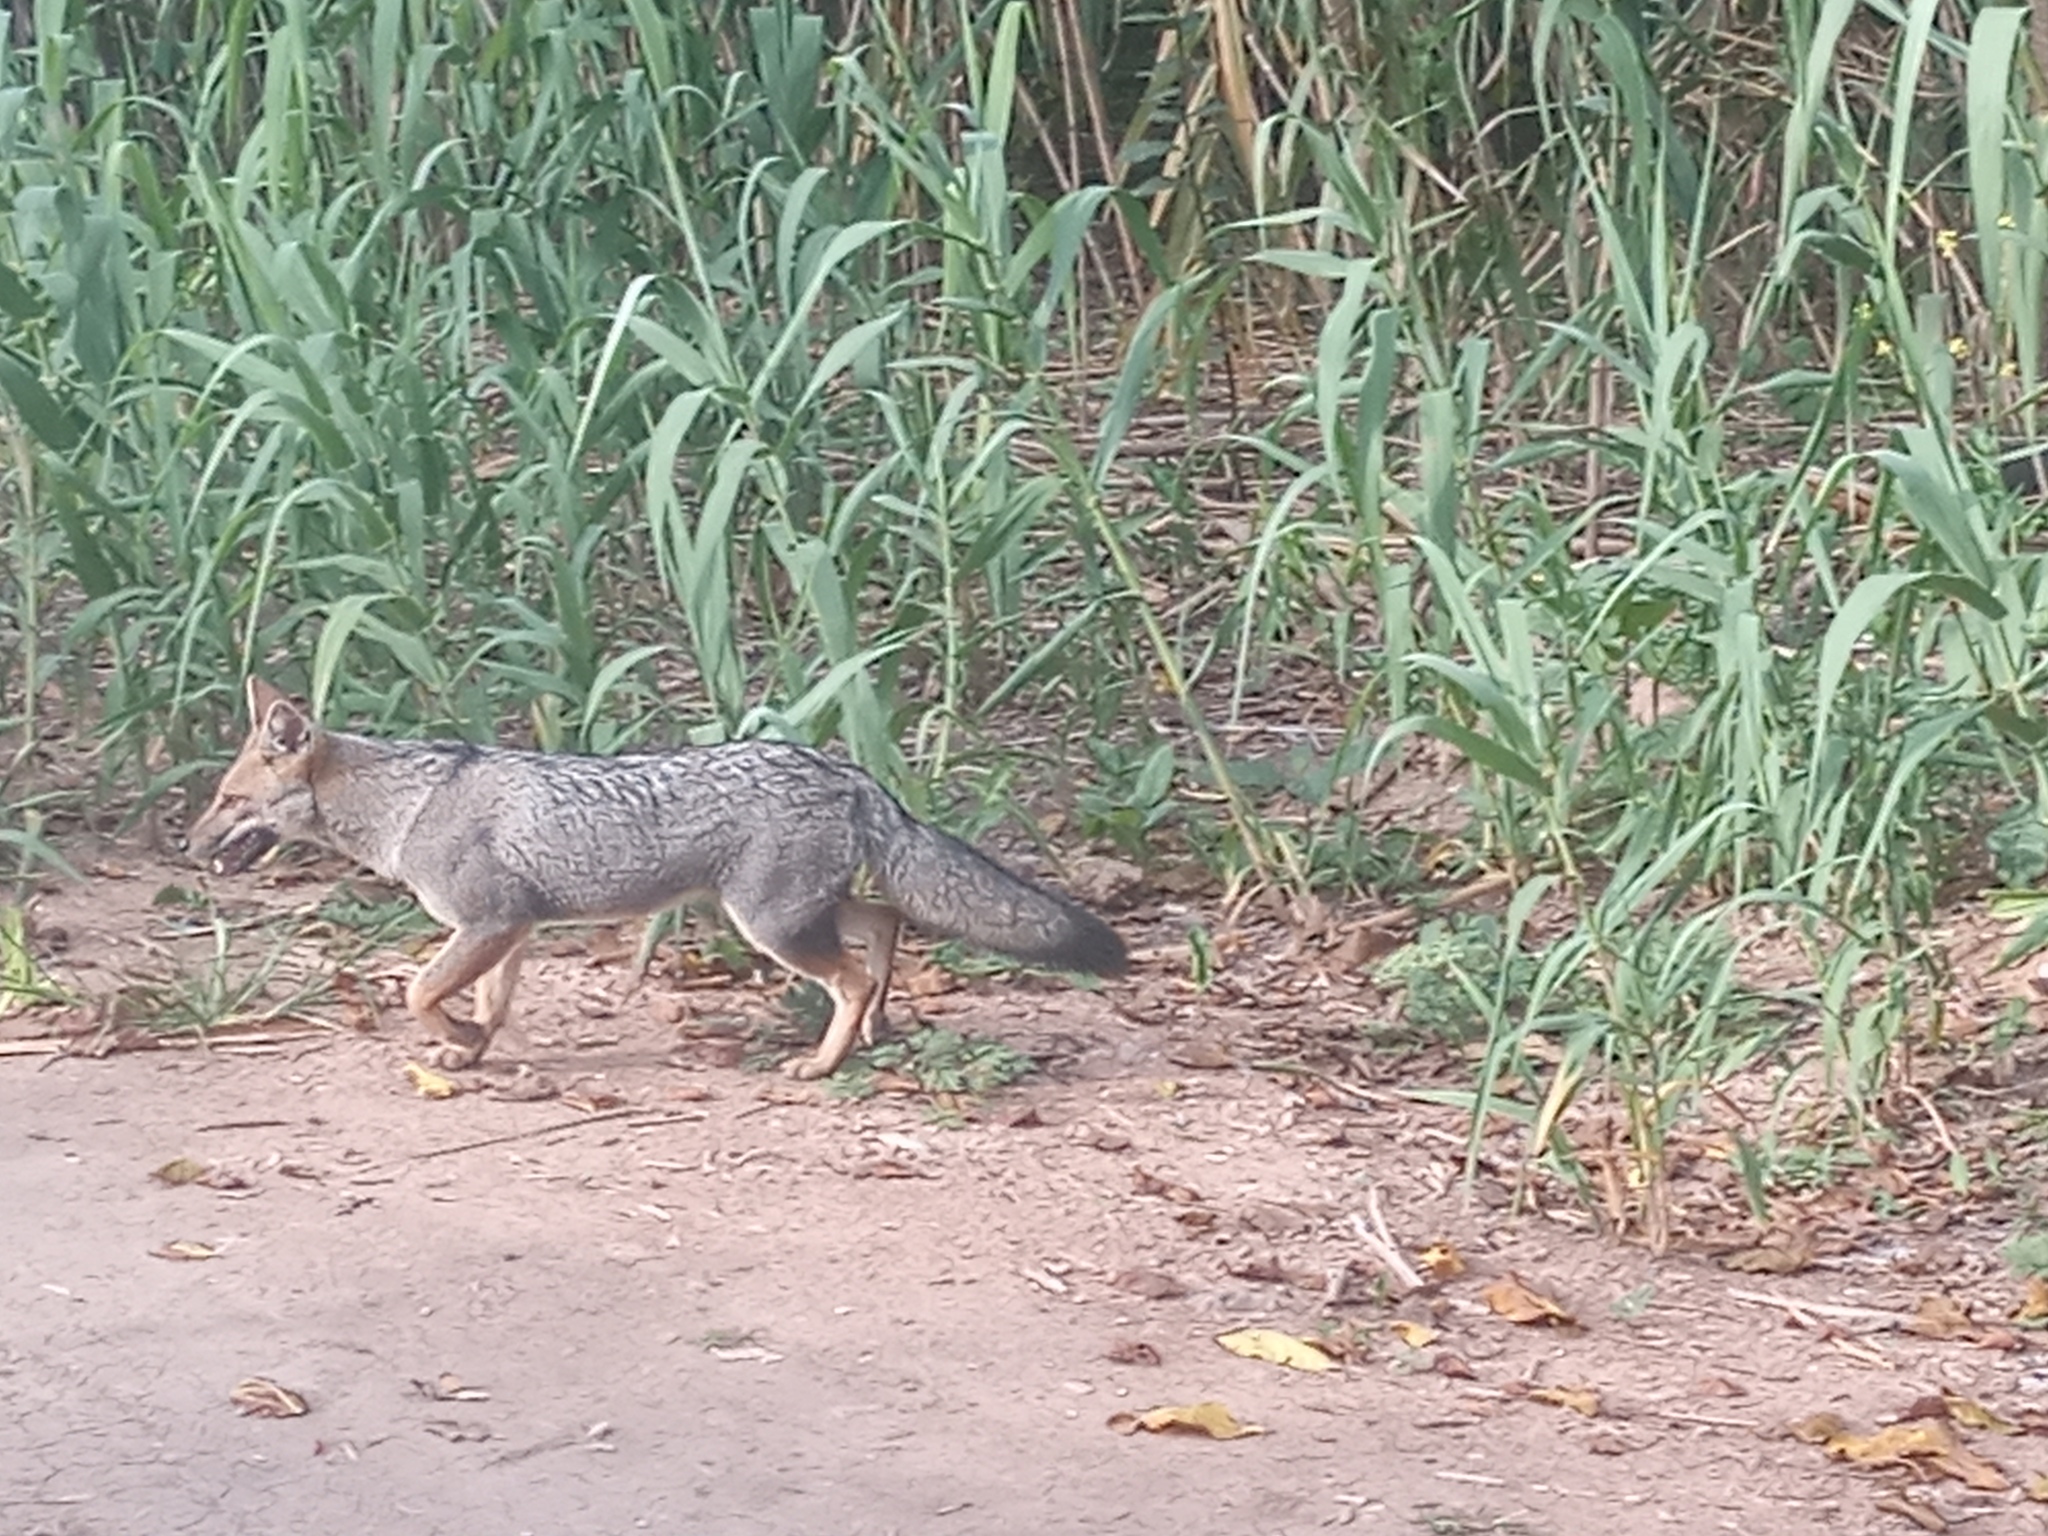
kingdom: Animalia
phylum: Chordata
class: Mammalia
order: Carnivora
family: Canidae
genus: Lycalopex
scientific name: Lycalopex gymnocercus
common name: Pampas fox
